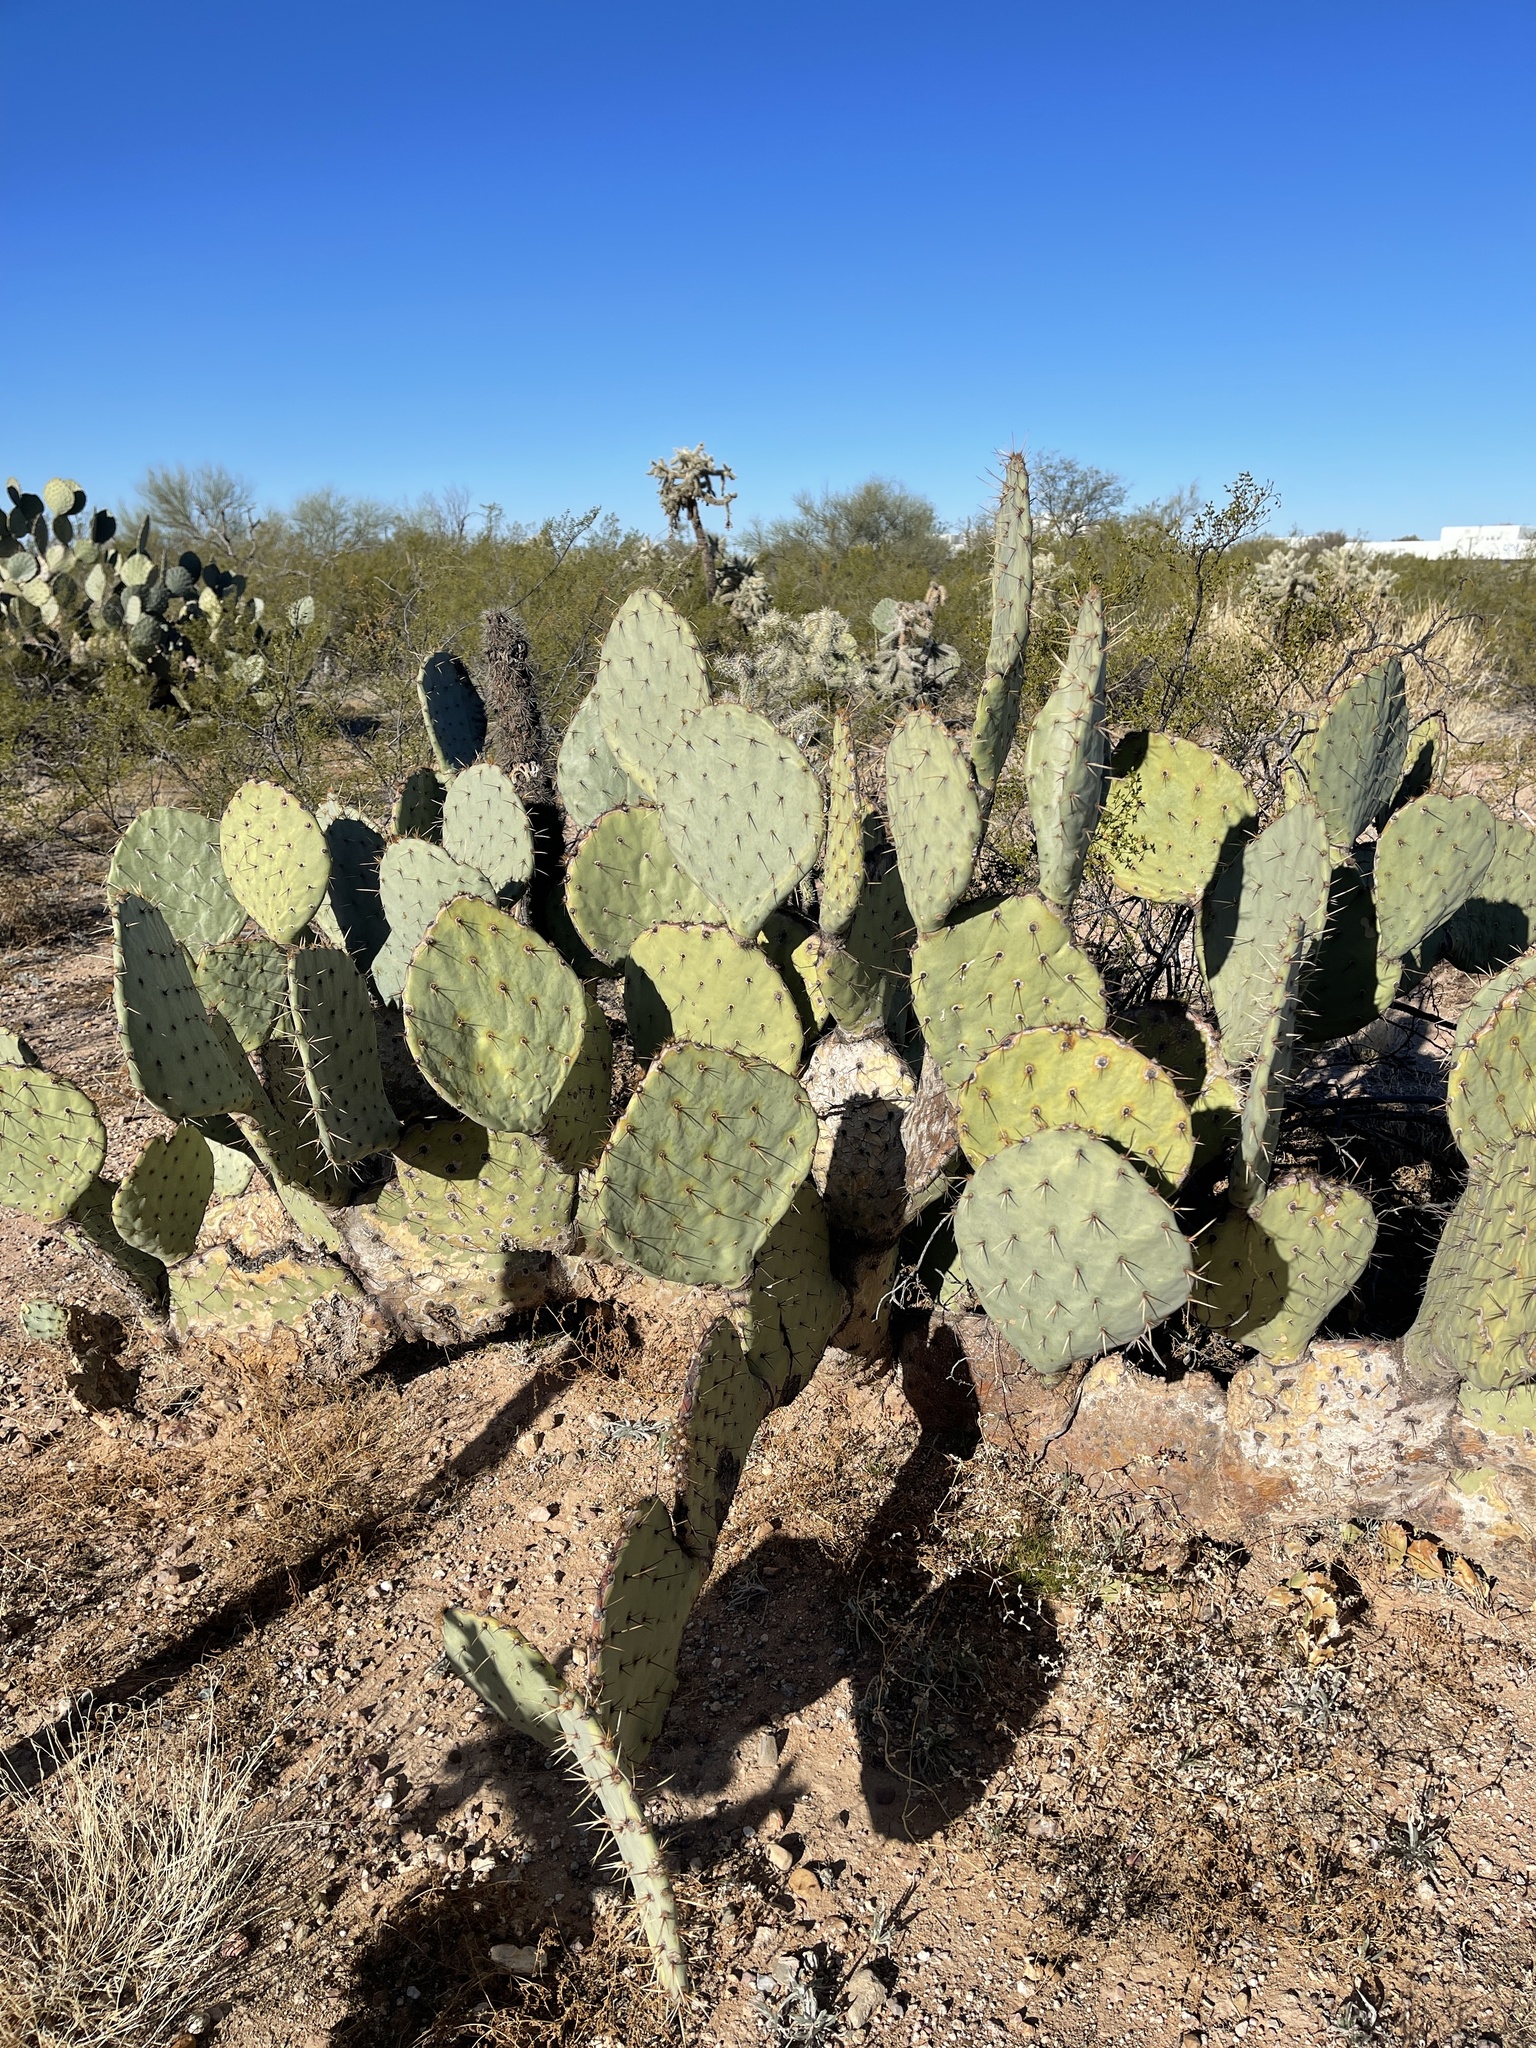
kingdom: Plantae
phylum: Tracheophyta
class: Magnoliopsida
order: Caryophyllales
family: Cactaceae
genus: Opuntia
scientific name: Opuntia engelmannii
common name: Cactus-apple
